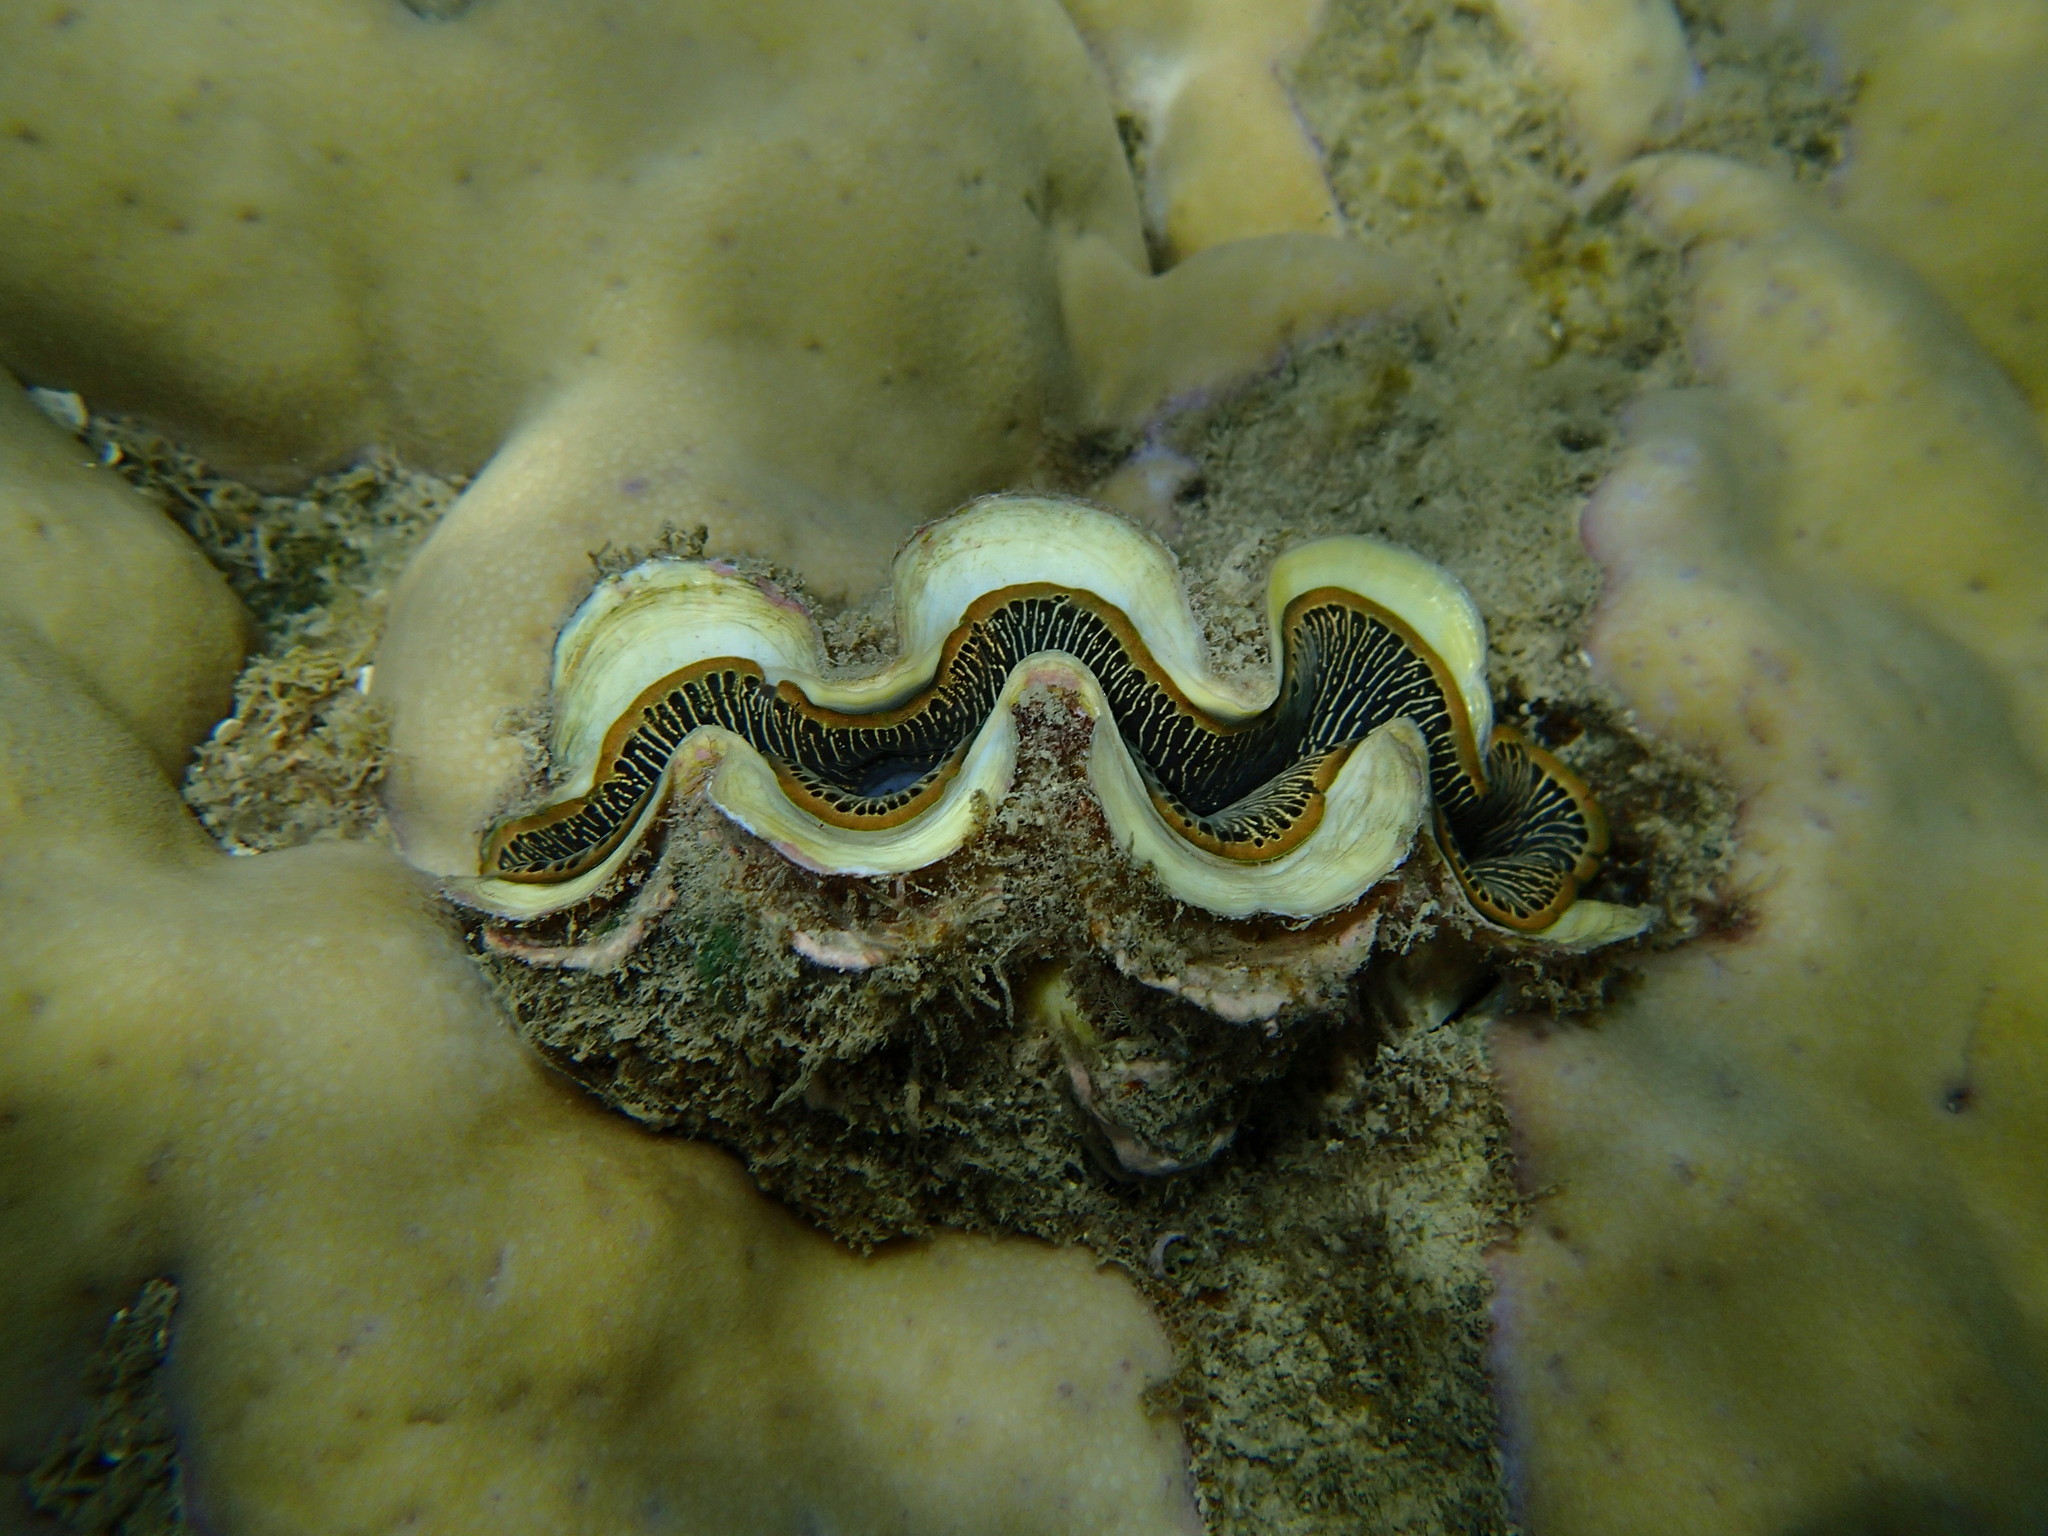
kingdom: Animalia
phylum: Mollusca
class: Bivalvia
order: Cardiida
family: Cardiidae
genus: Tridacna
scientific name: Tridacna maxima
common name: Small giant clam
